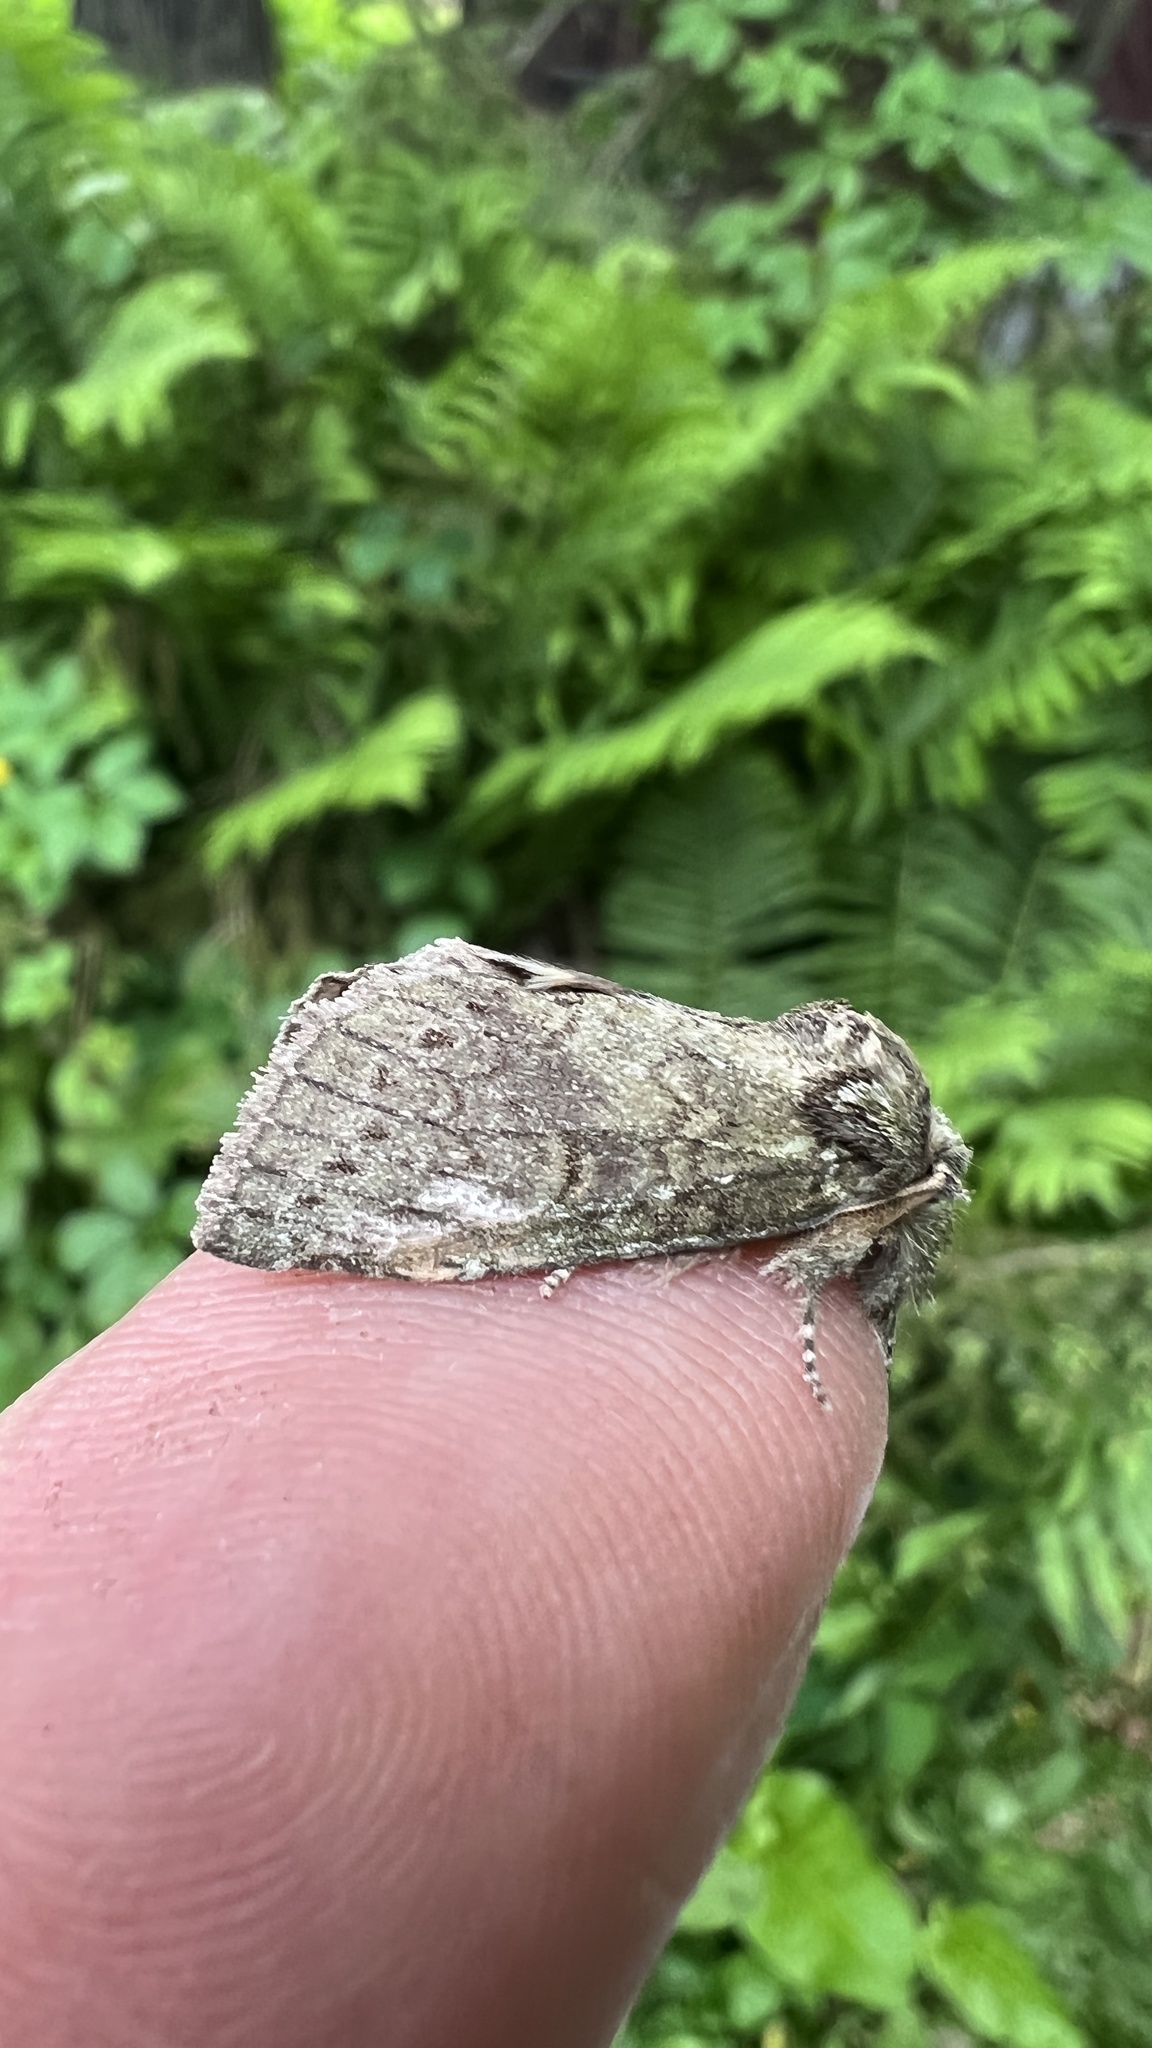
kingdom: Animalia
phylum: Arthropoda
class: Insecta
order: Lepidoptera
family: Notodontidae
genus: Disphragis
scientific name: Disphragis Cecrita guttivitta
